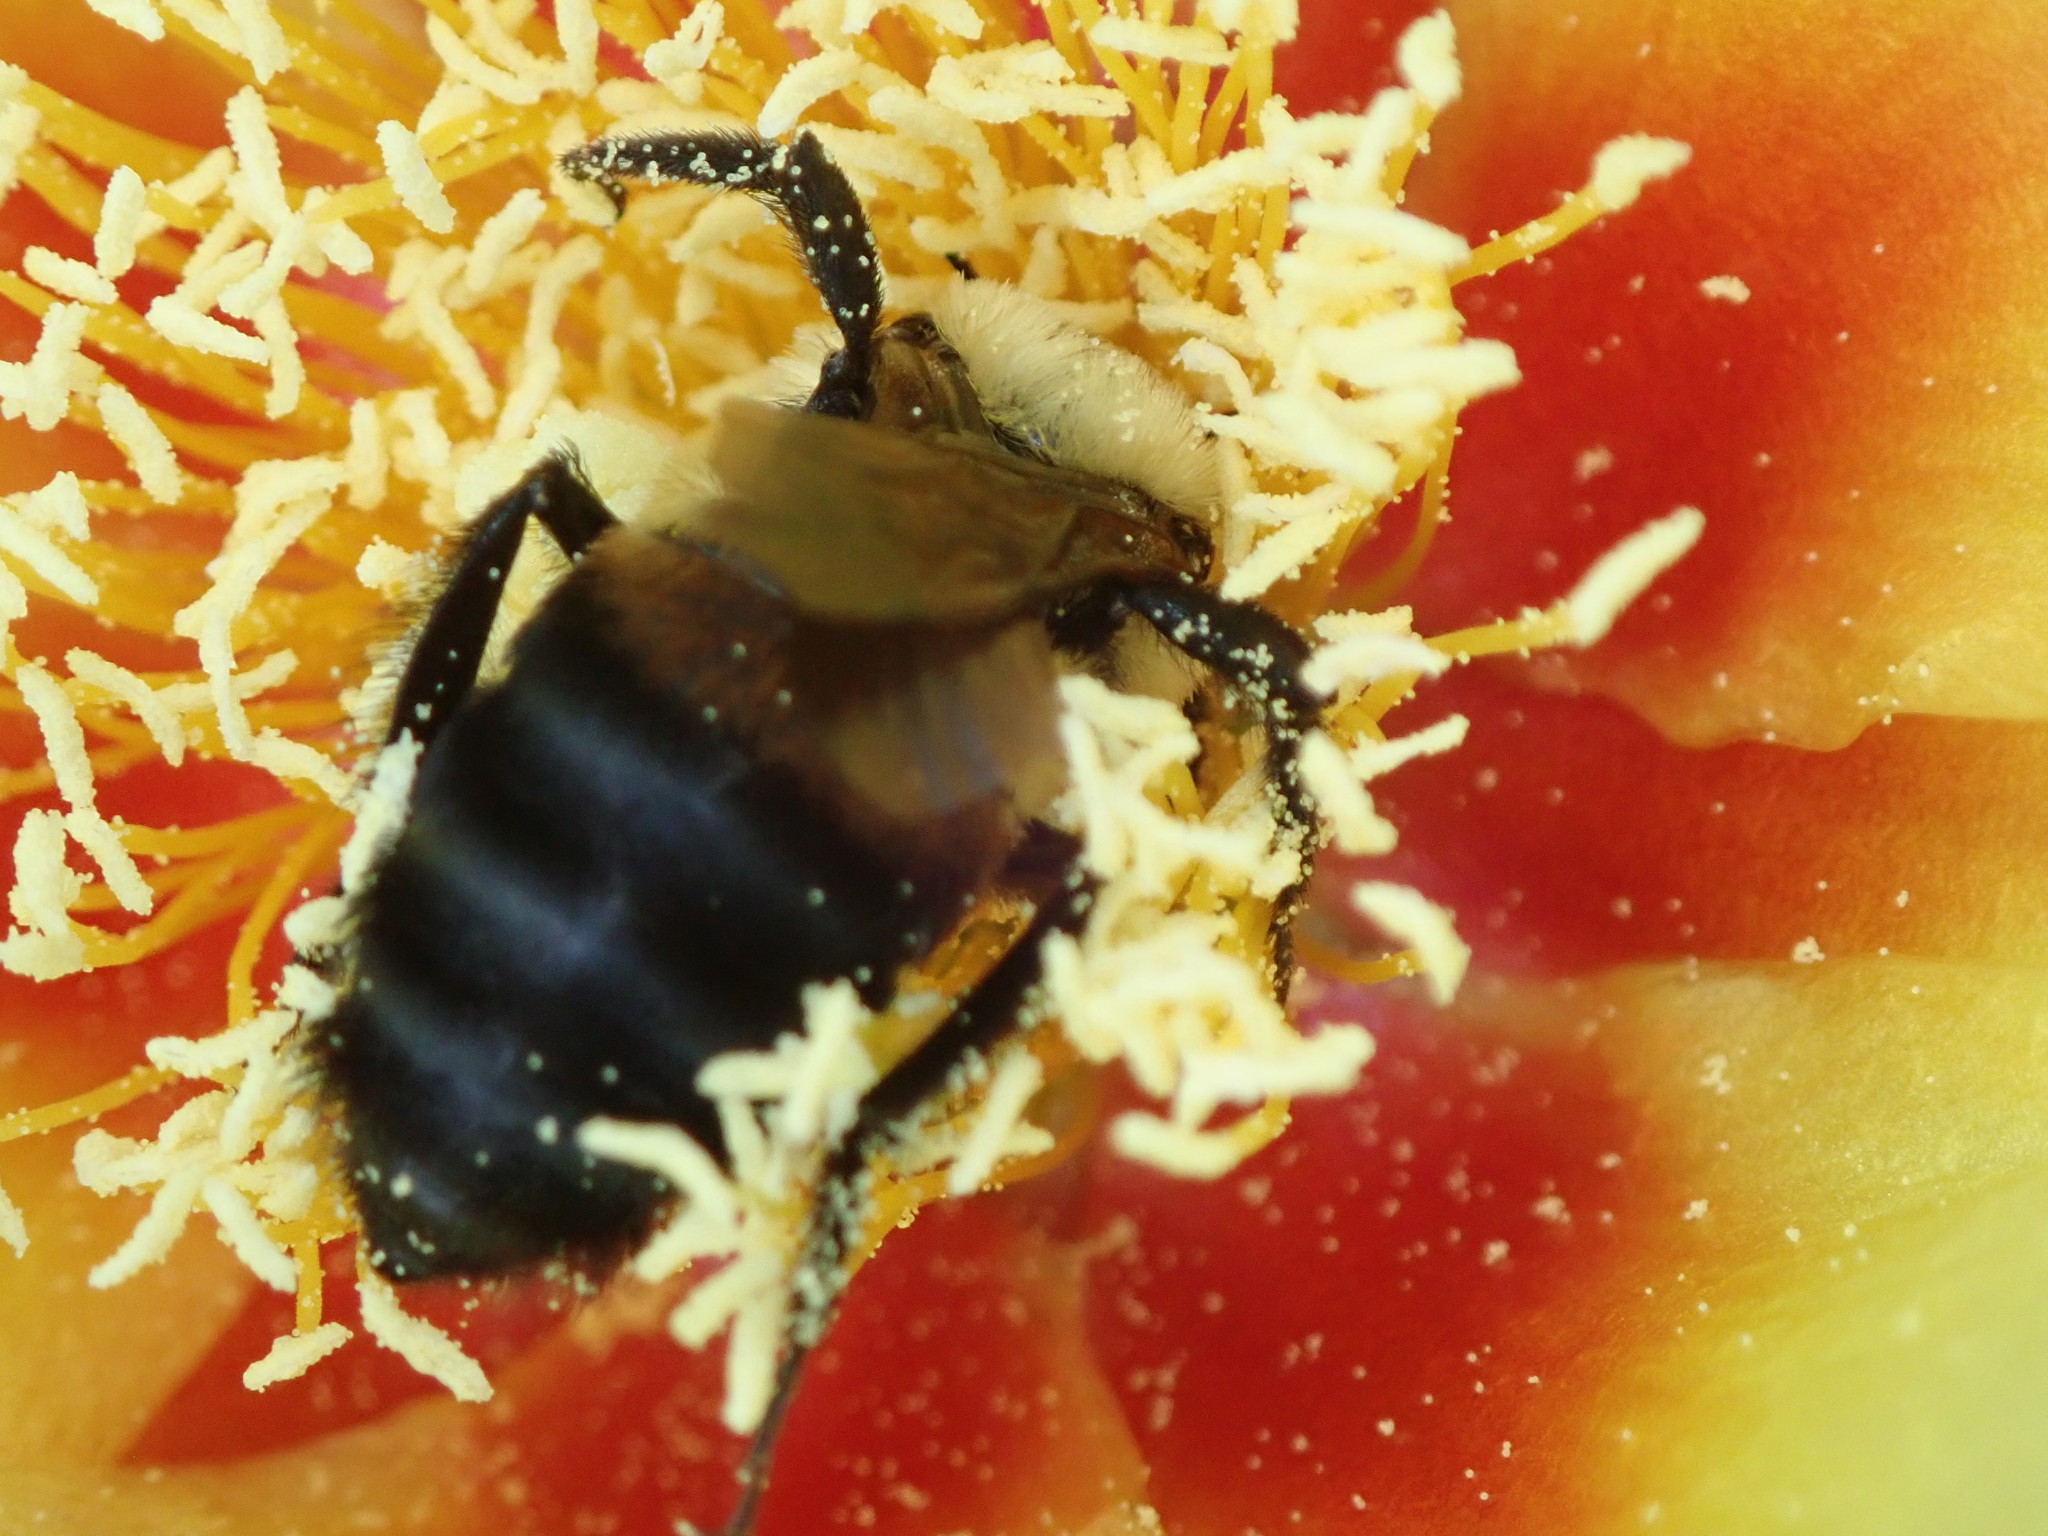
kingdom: Animalia
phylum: Arthropoda
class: Insecta
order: Hymenoptera
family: Apidae
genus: Bombus
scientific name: Bombus griseocollis
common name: Brown-belted bumble bee
